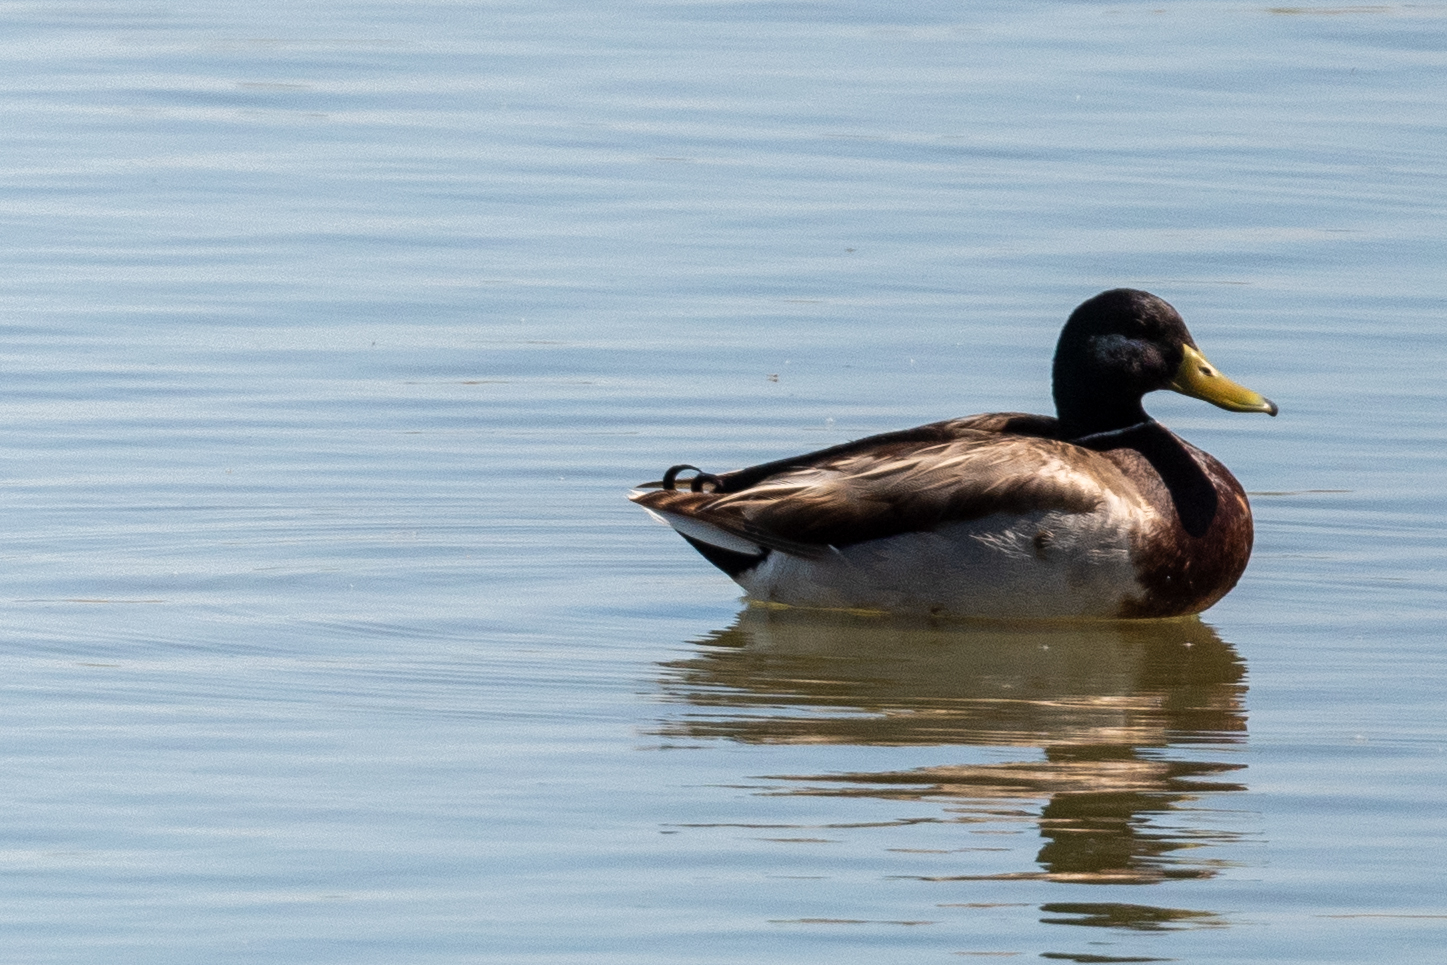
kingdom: Animalia
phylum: Chordata
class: Aves
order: Anseriformes
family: Anatidae
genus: Anas
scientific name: Anas platyrhynchos
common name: Mallard
